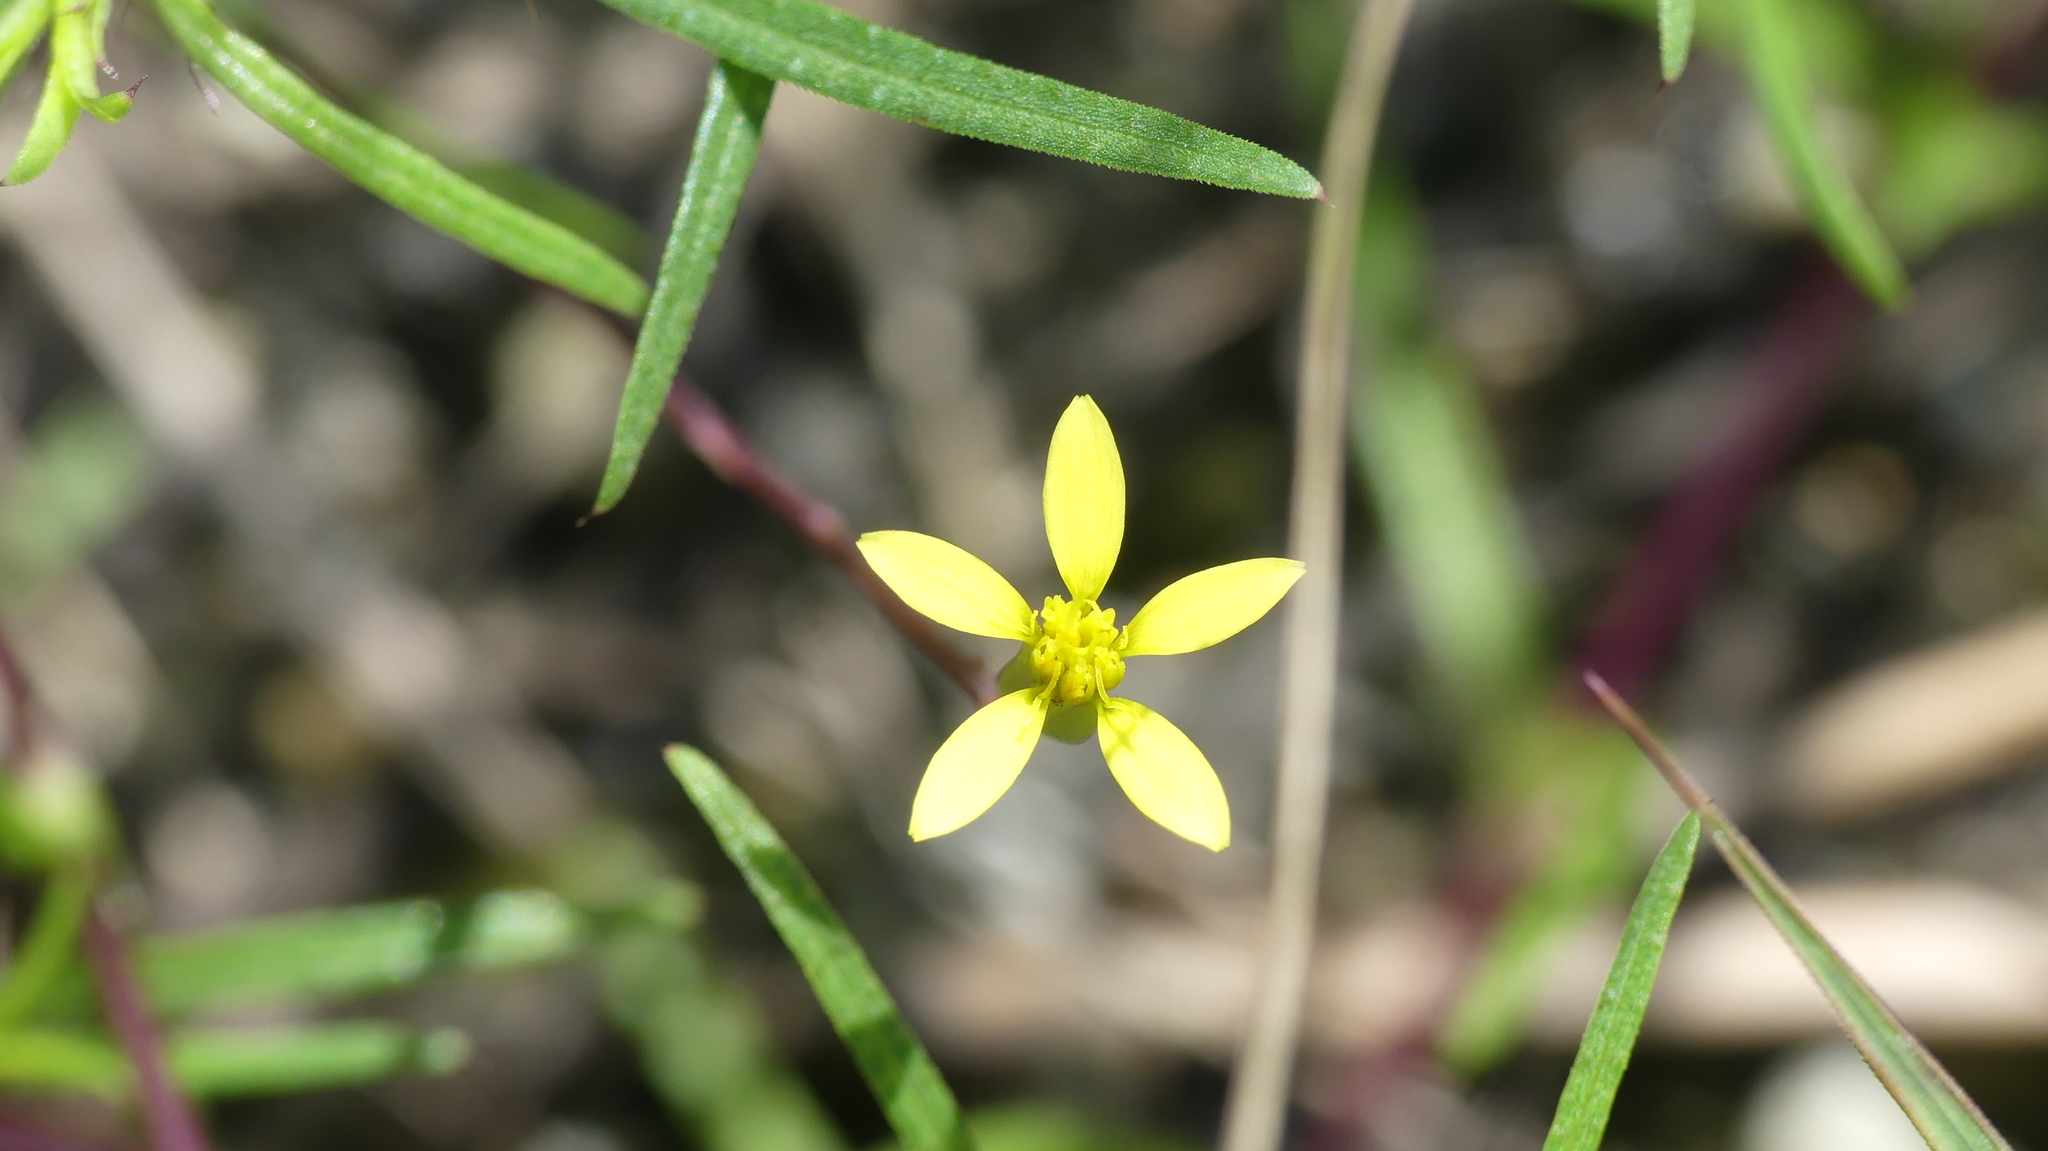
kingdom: Plantae
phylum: Tracheophyta
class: Magnoliopsida
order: Asterales
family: Asteraceae
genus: Pectis
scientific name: Pectis glaucescens
